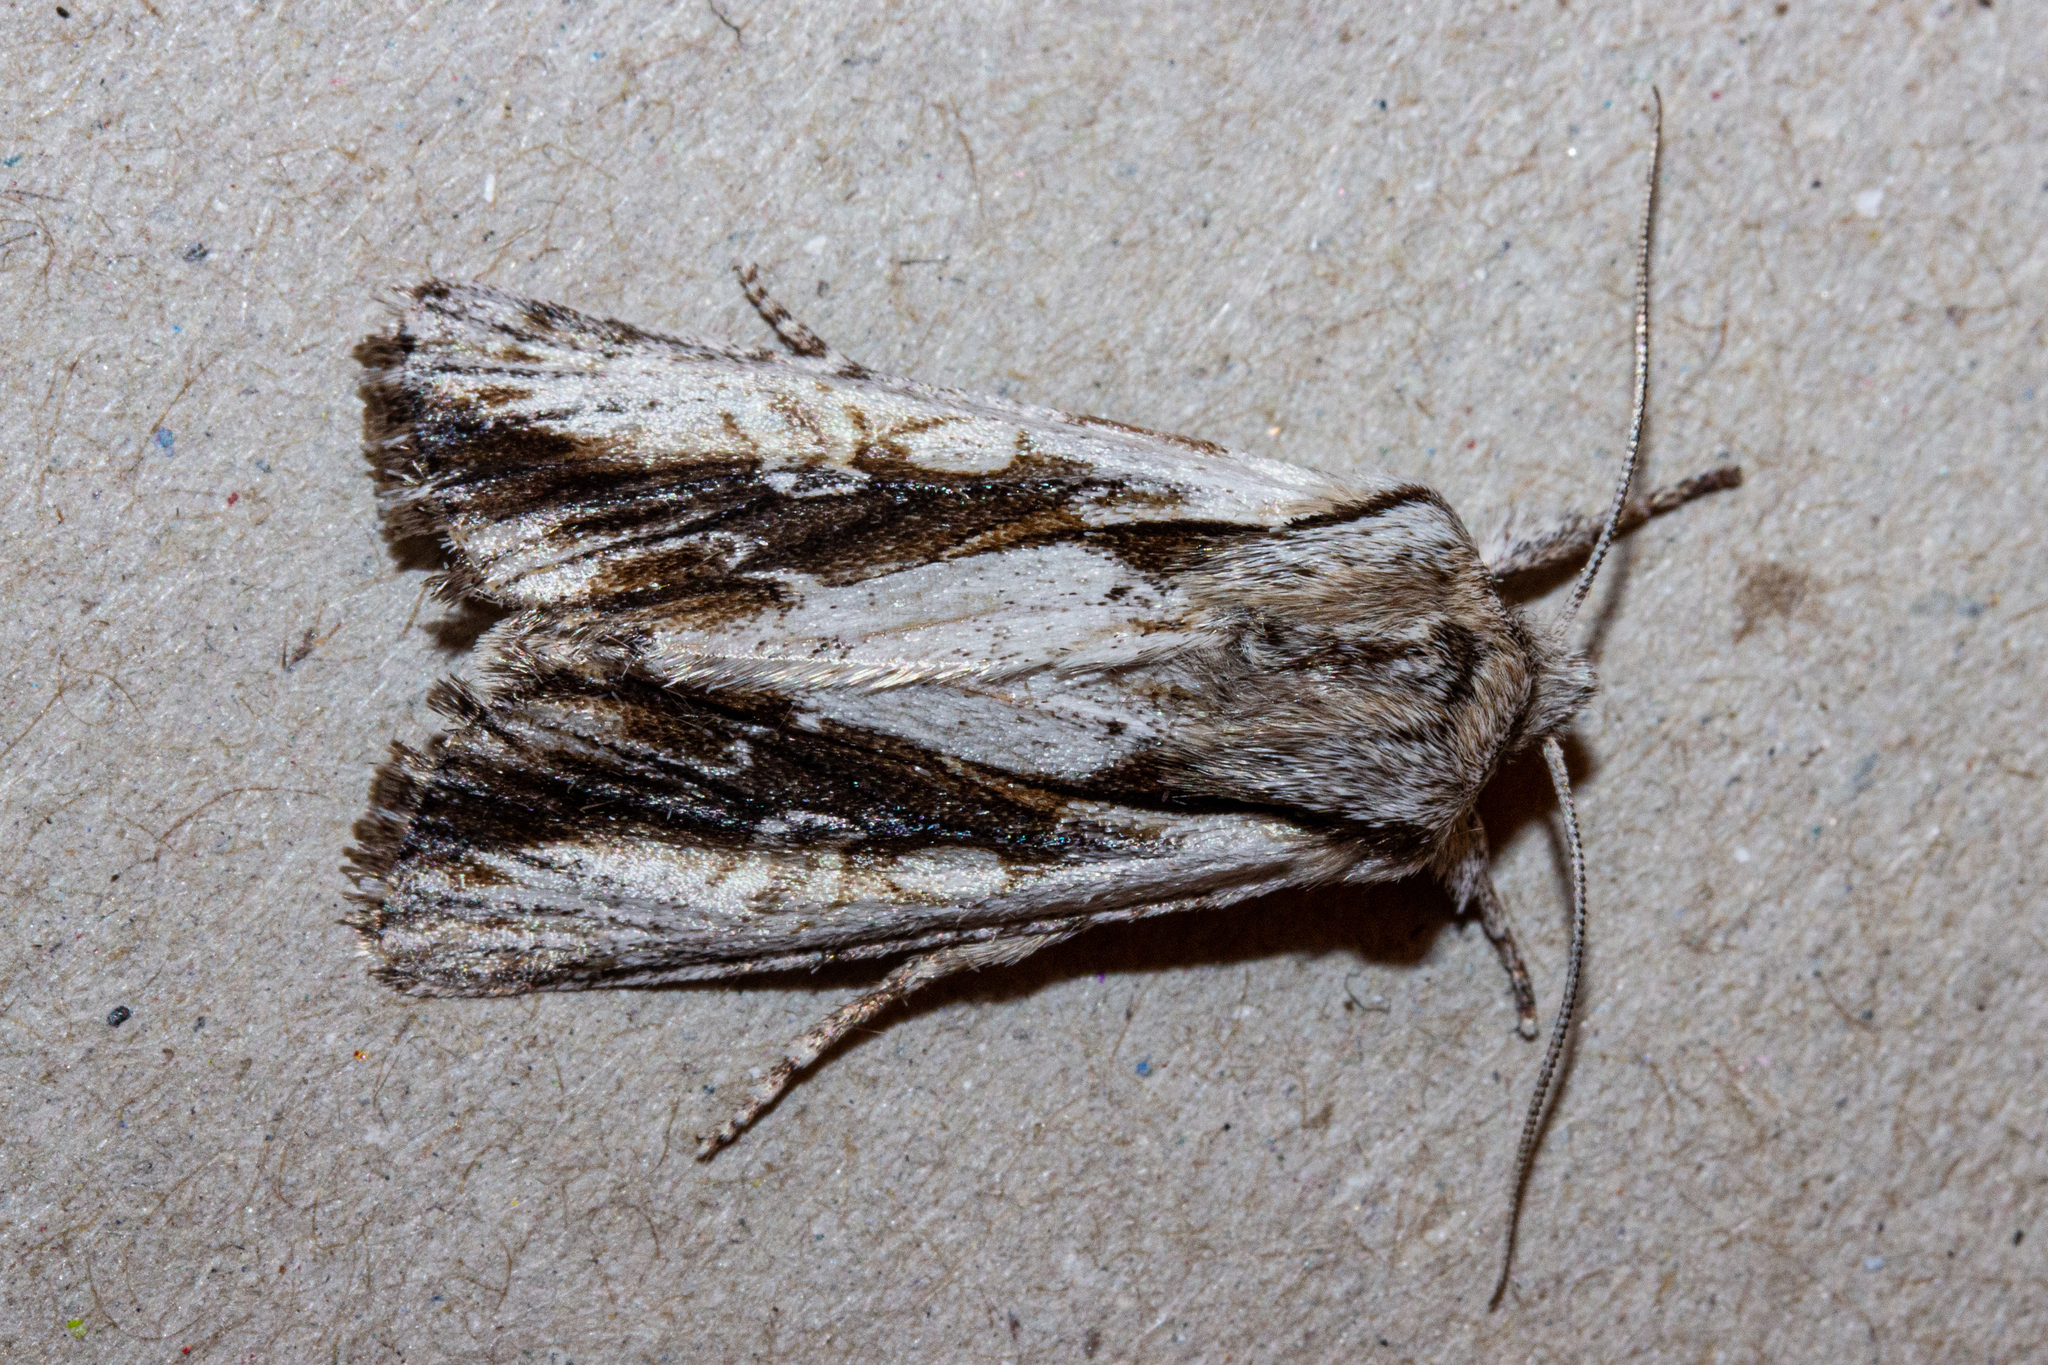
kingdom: Animalia
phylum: Arthropoda
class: Insecta
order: Lepidoptera
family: Noctuidae
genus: Ichneutica
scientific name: Ichneutica
